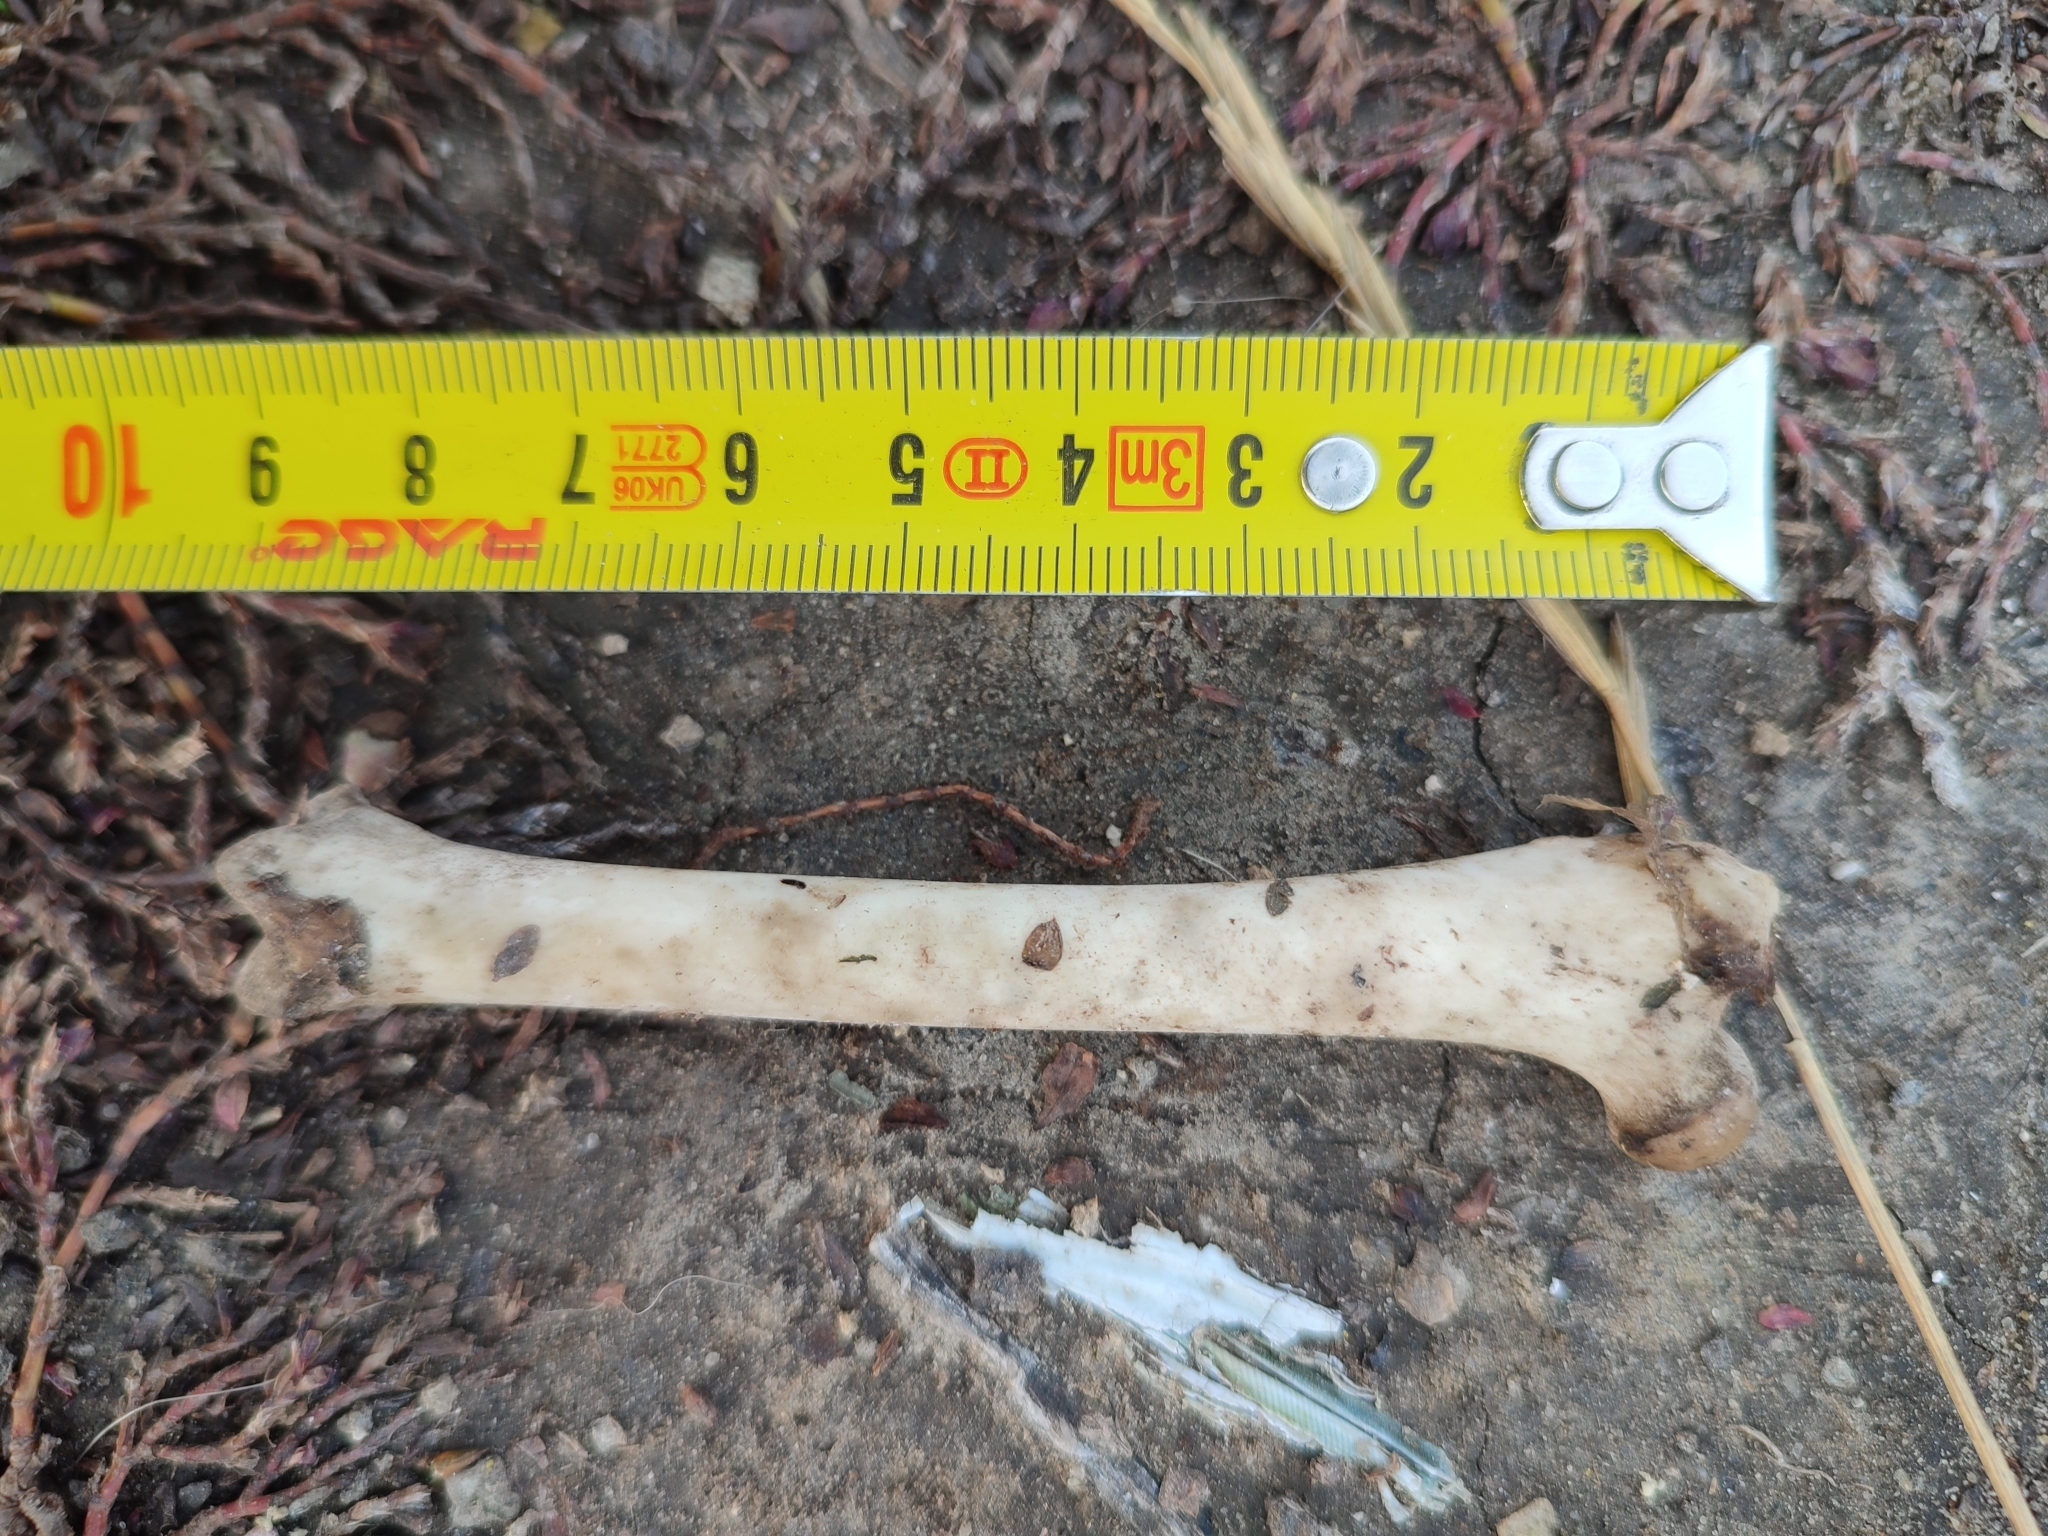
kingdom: Animalia
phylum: Chordata
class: Mammalia
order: Carnivora
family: Felidae
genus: Felis
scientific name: Felis catus
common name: Domestic cat
